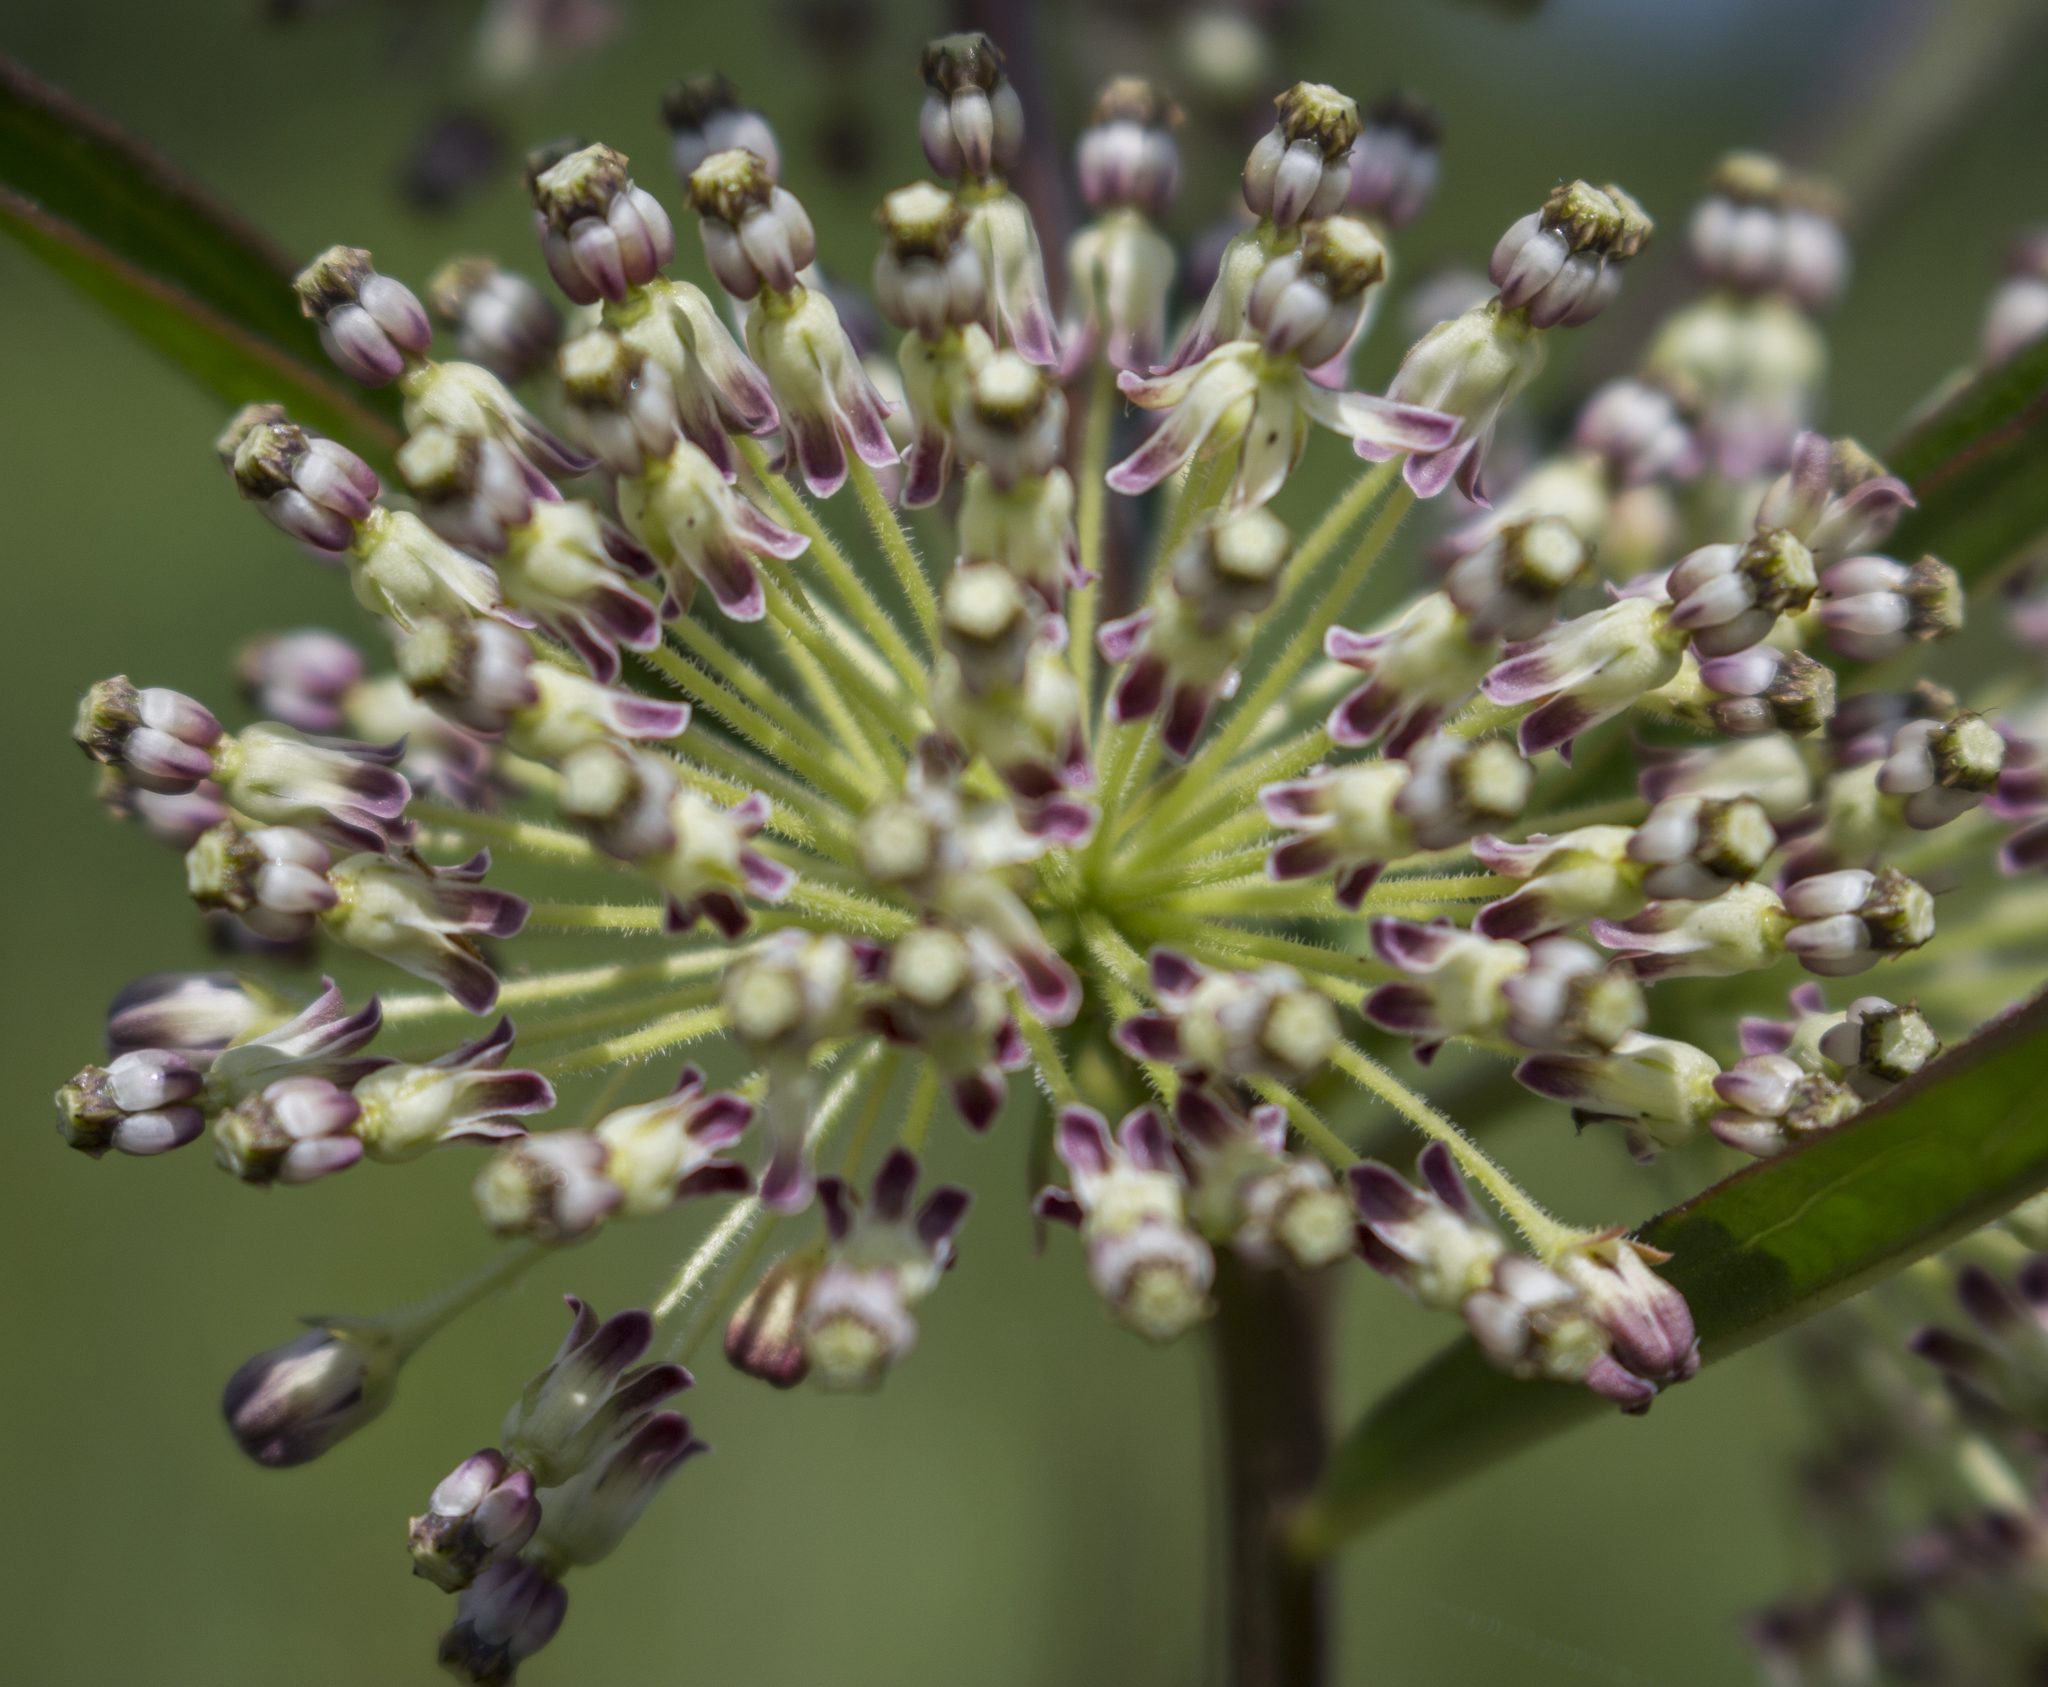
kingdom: Plantae
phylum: Tracheophyta
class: Magnoliopsida
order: Gentianales
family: Apocynaceae
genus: Asclepias
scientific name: Asclepias hirtella
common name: Prairie milkweed
